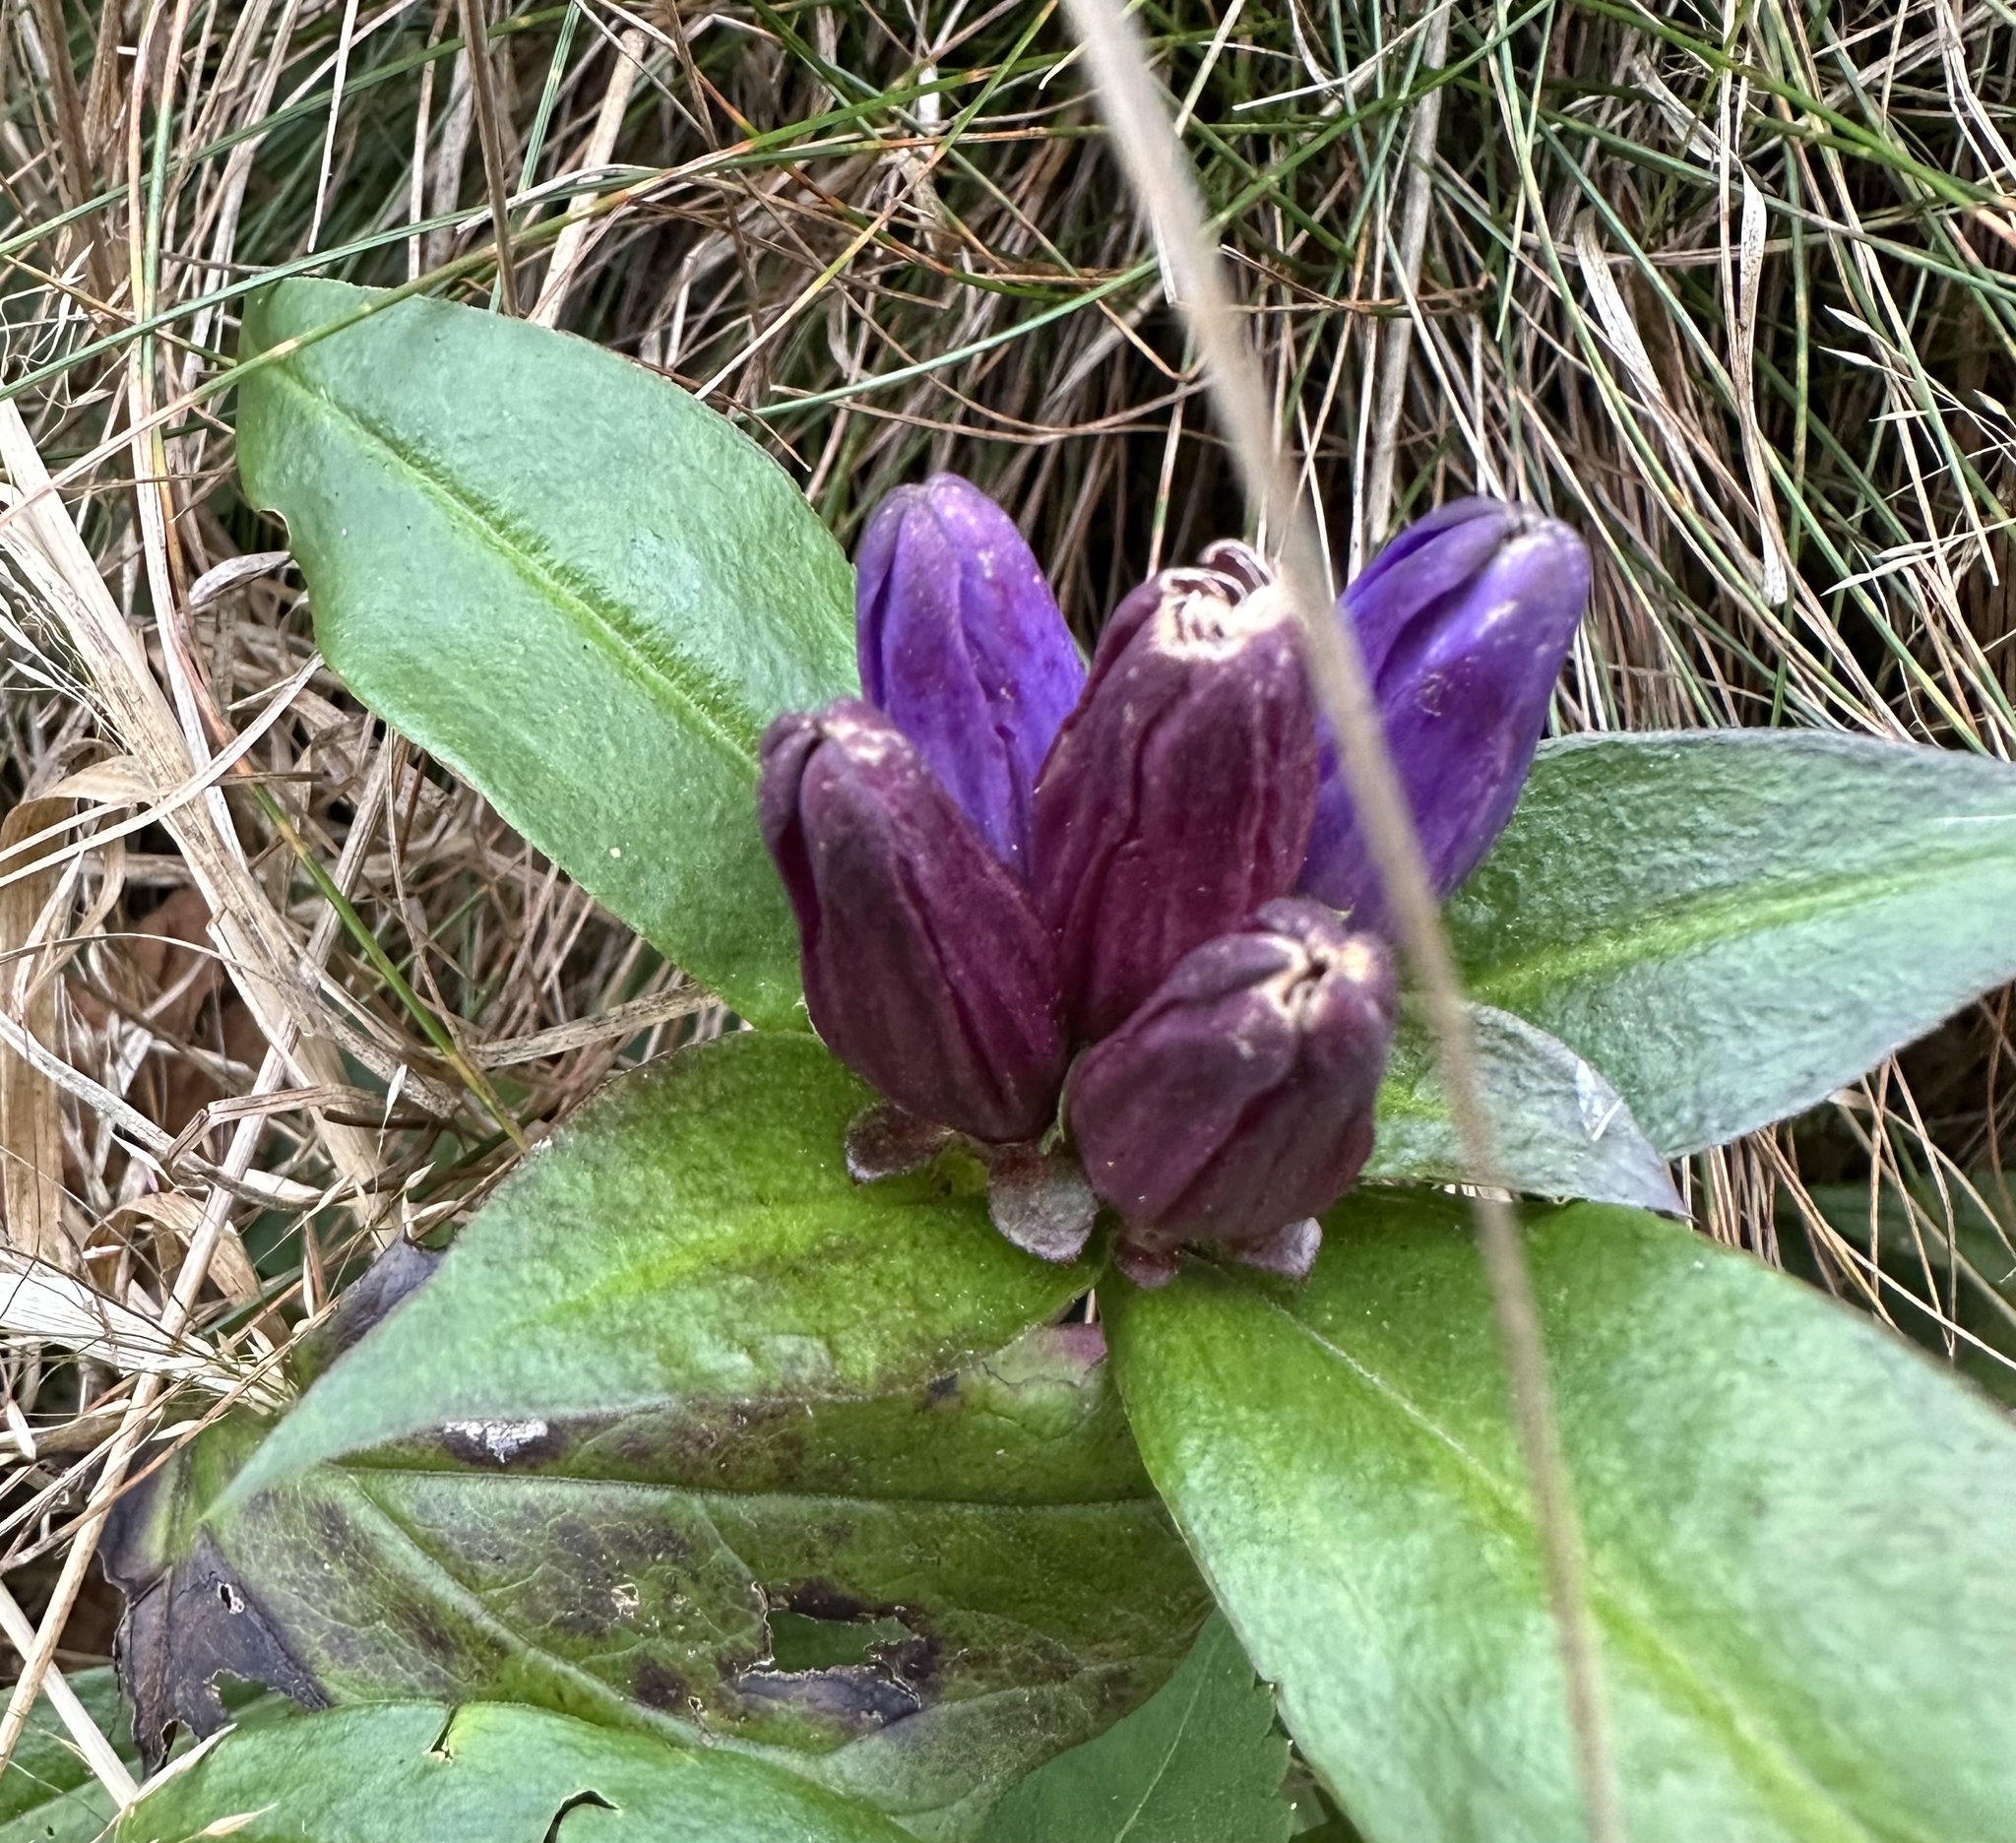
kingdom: Plantae
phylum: Tracheophyta
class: Magnoliopsida
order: Gentianales
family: Gentianaceae
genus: Gentiana
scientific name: Gentiana clausa
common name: Blind gentian
